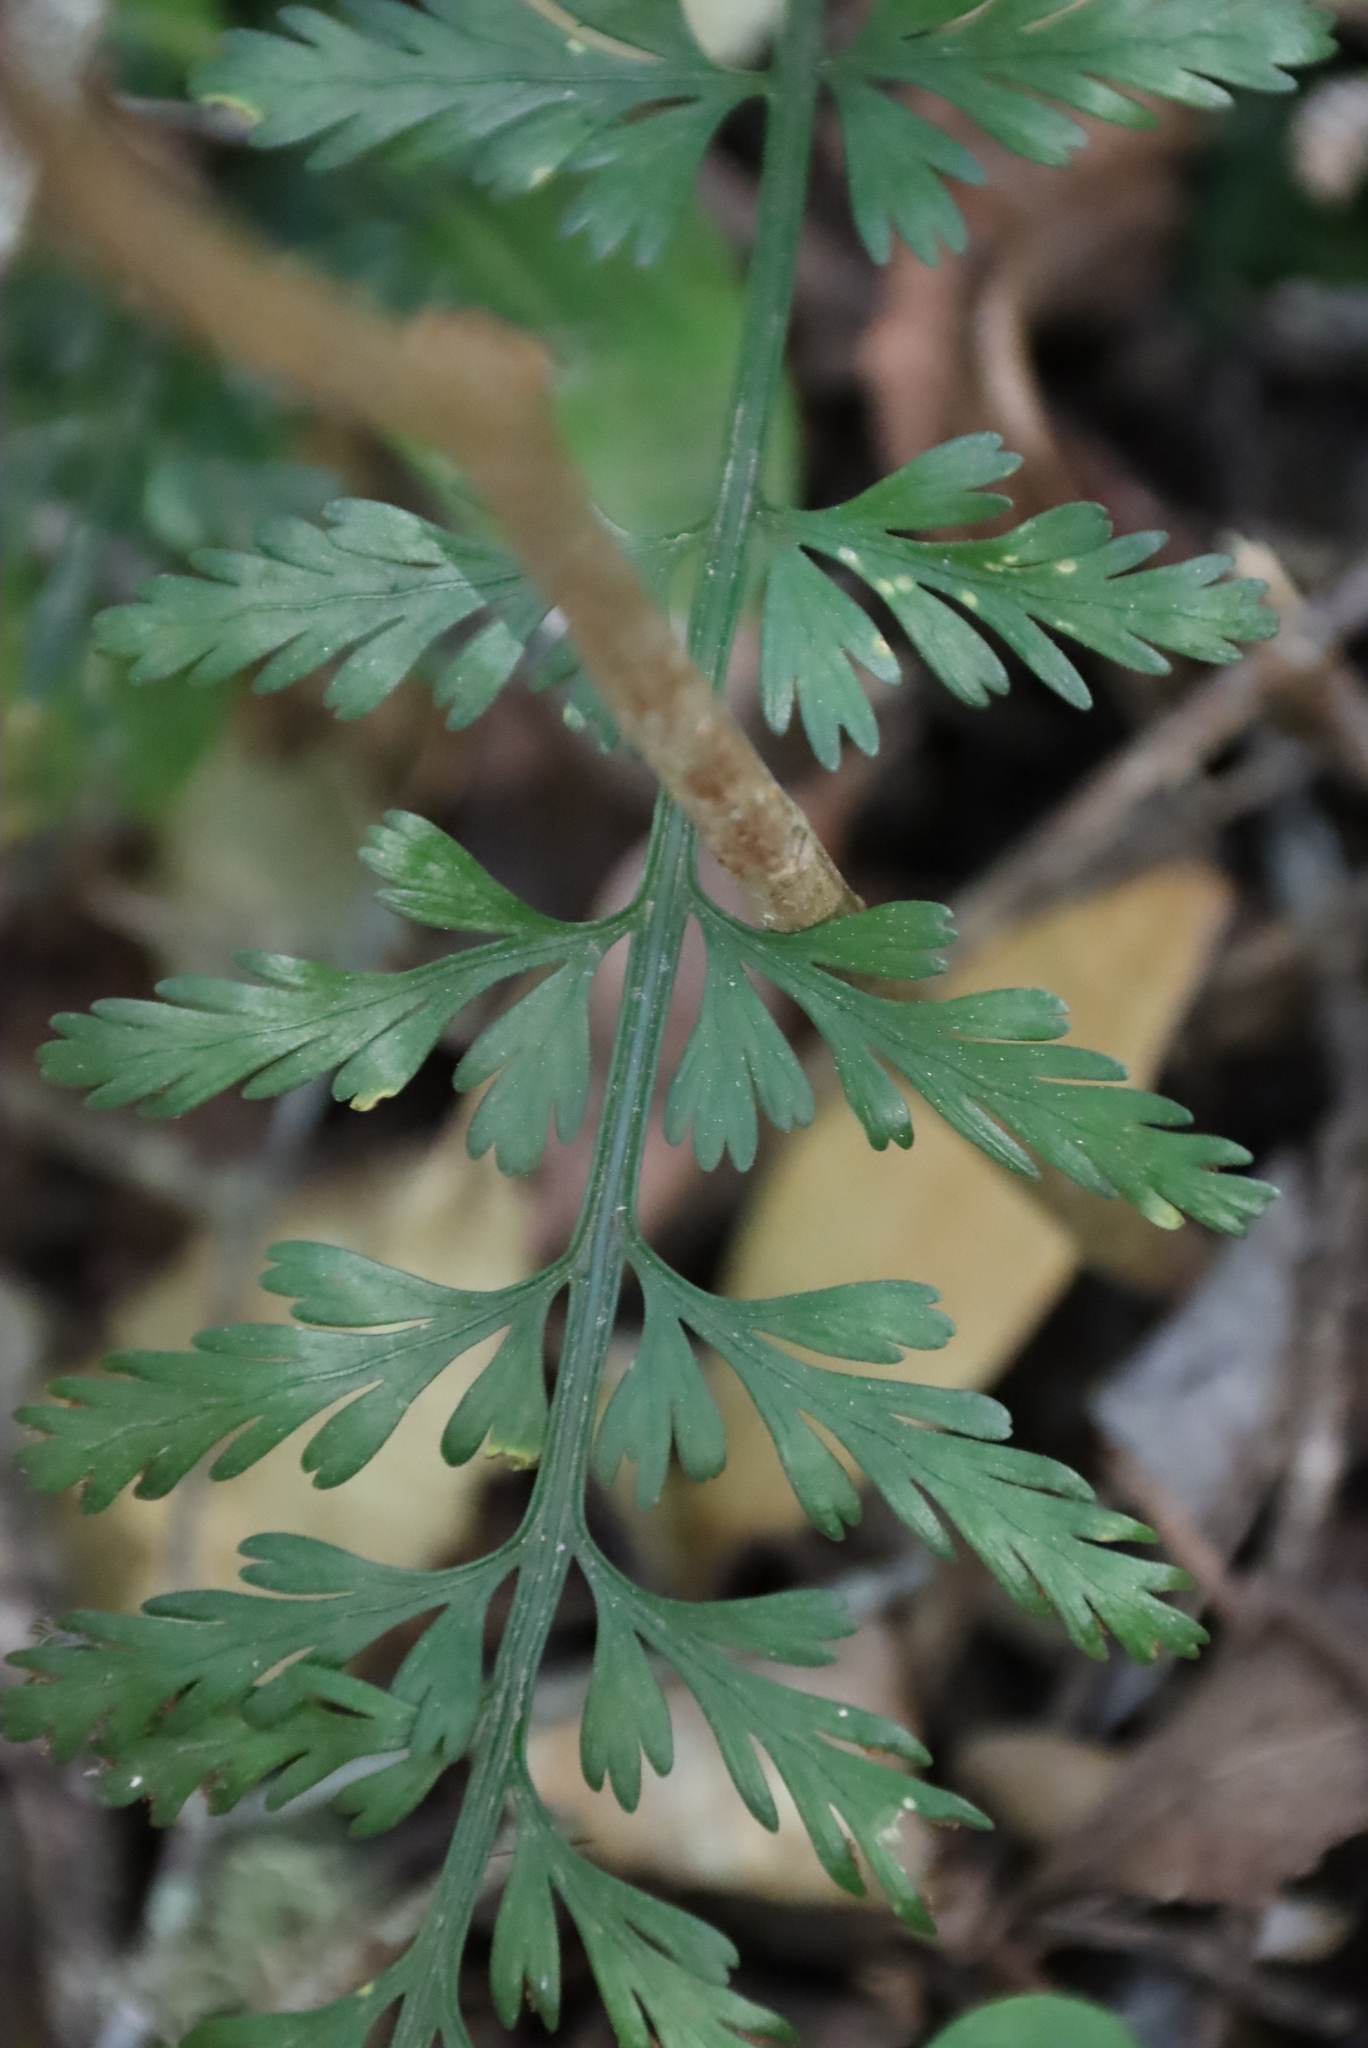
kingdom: Plantae
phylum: Tracheophyta
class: Polypodiopsida
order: Polypodiales
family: Aspleniaceae
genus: Asplenium
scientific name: Asplenium rutifolium
